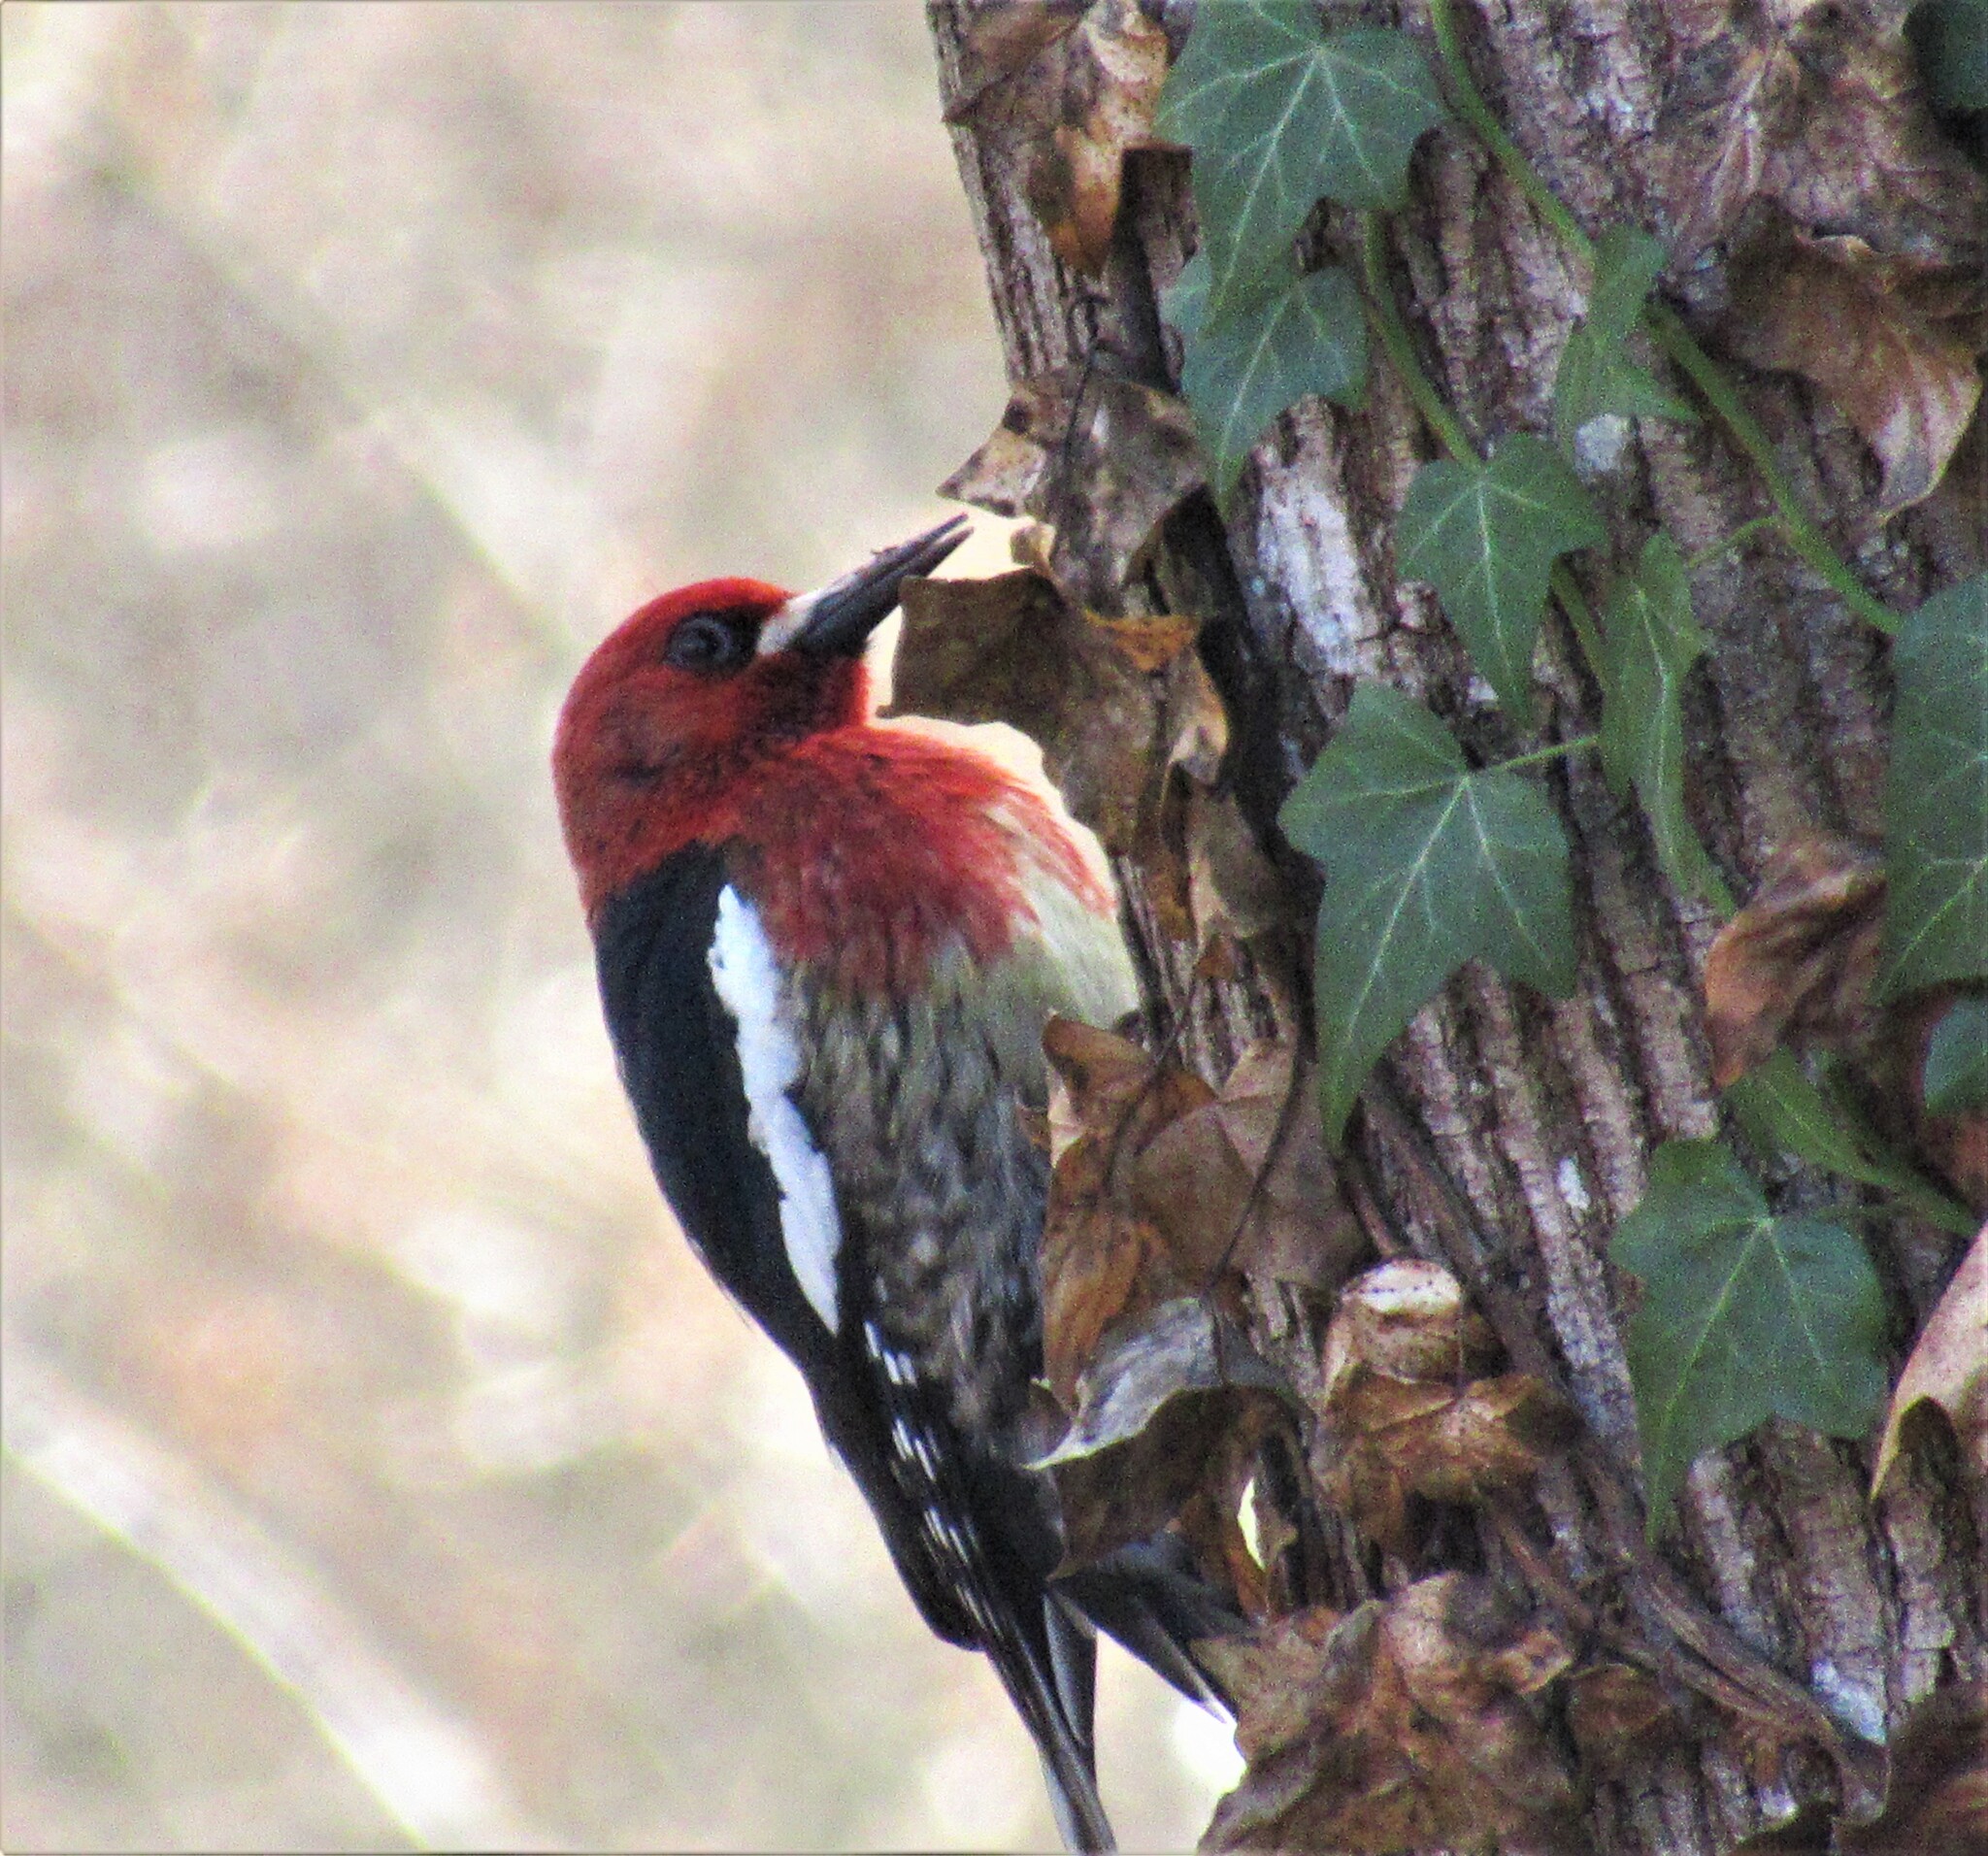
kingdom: Animalia
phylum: Chordata
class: Aves
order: Piciformes
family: Picidae
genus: Sphyrapicus
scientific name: Sphyrapicus ruber
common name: Red-breasted sapsucker
